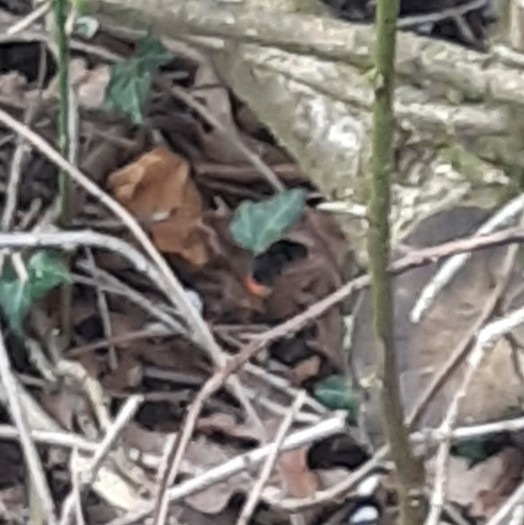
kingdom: Animalia
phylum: Arthropoda
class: Insecta
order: Hymenoptera
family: Apidae
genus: Bombus
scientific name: Bombus lapidarius
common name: Large red-tailed humble-bee
